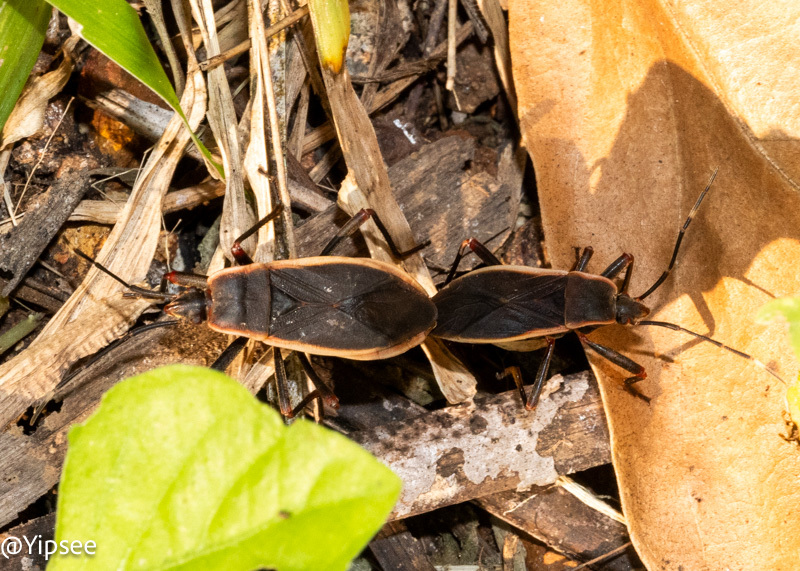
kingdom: Animalia
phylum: Arthropoda
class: Insecta
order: Hemiptera
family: Largidae
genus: Iphita
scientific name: Iphita limbata
